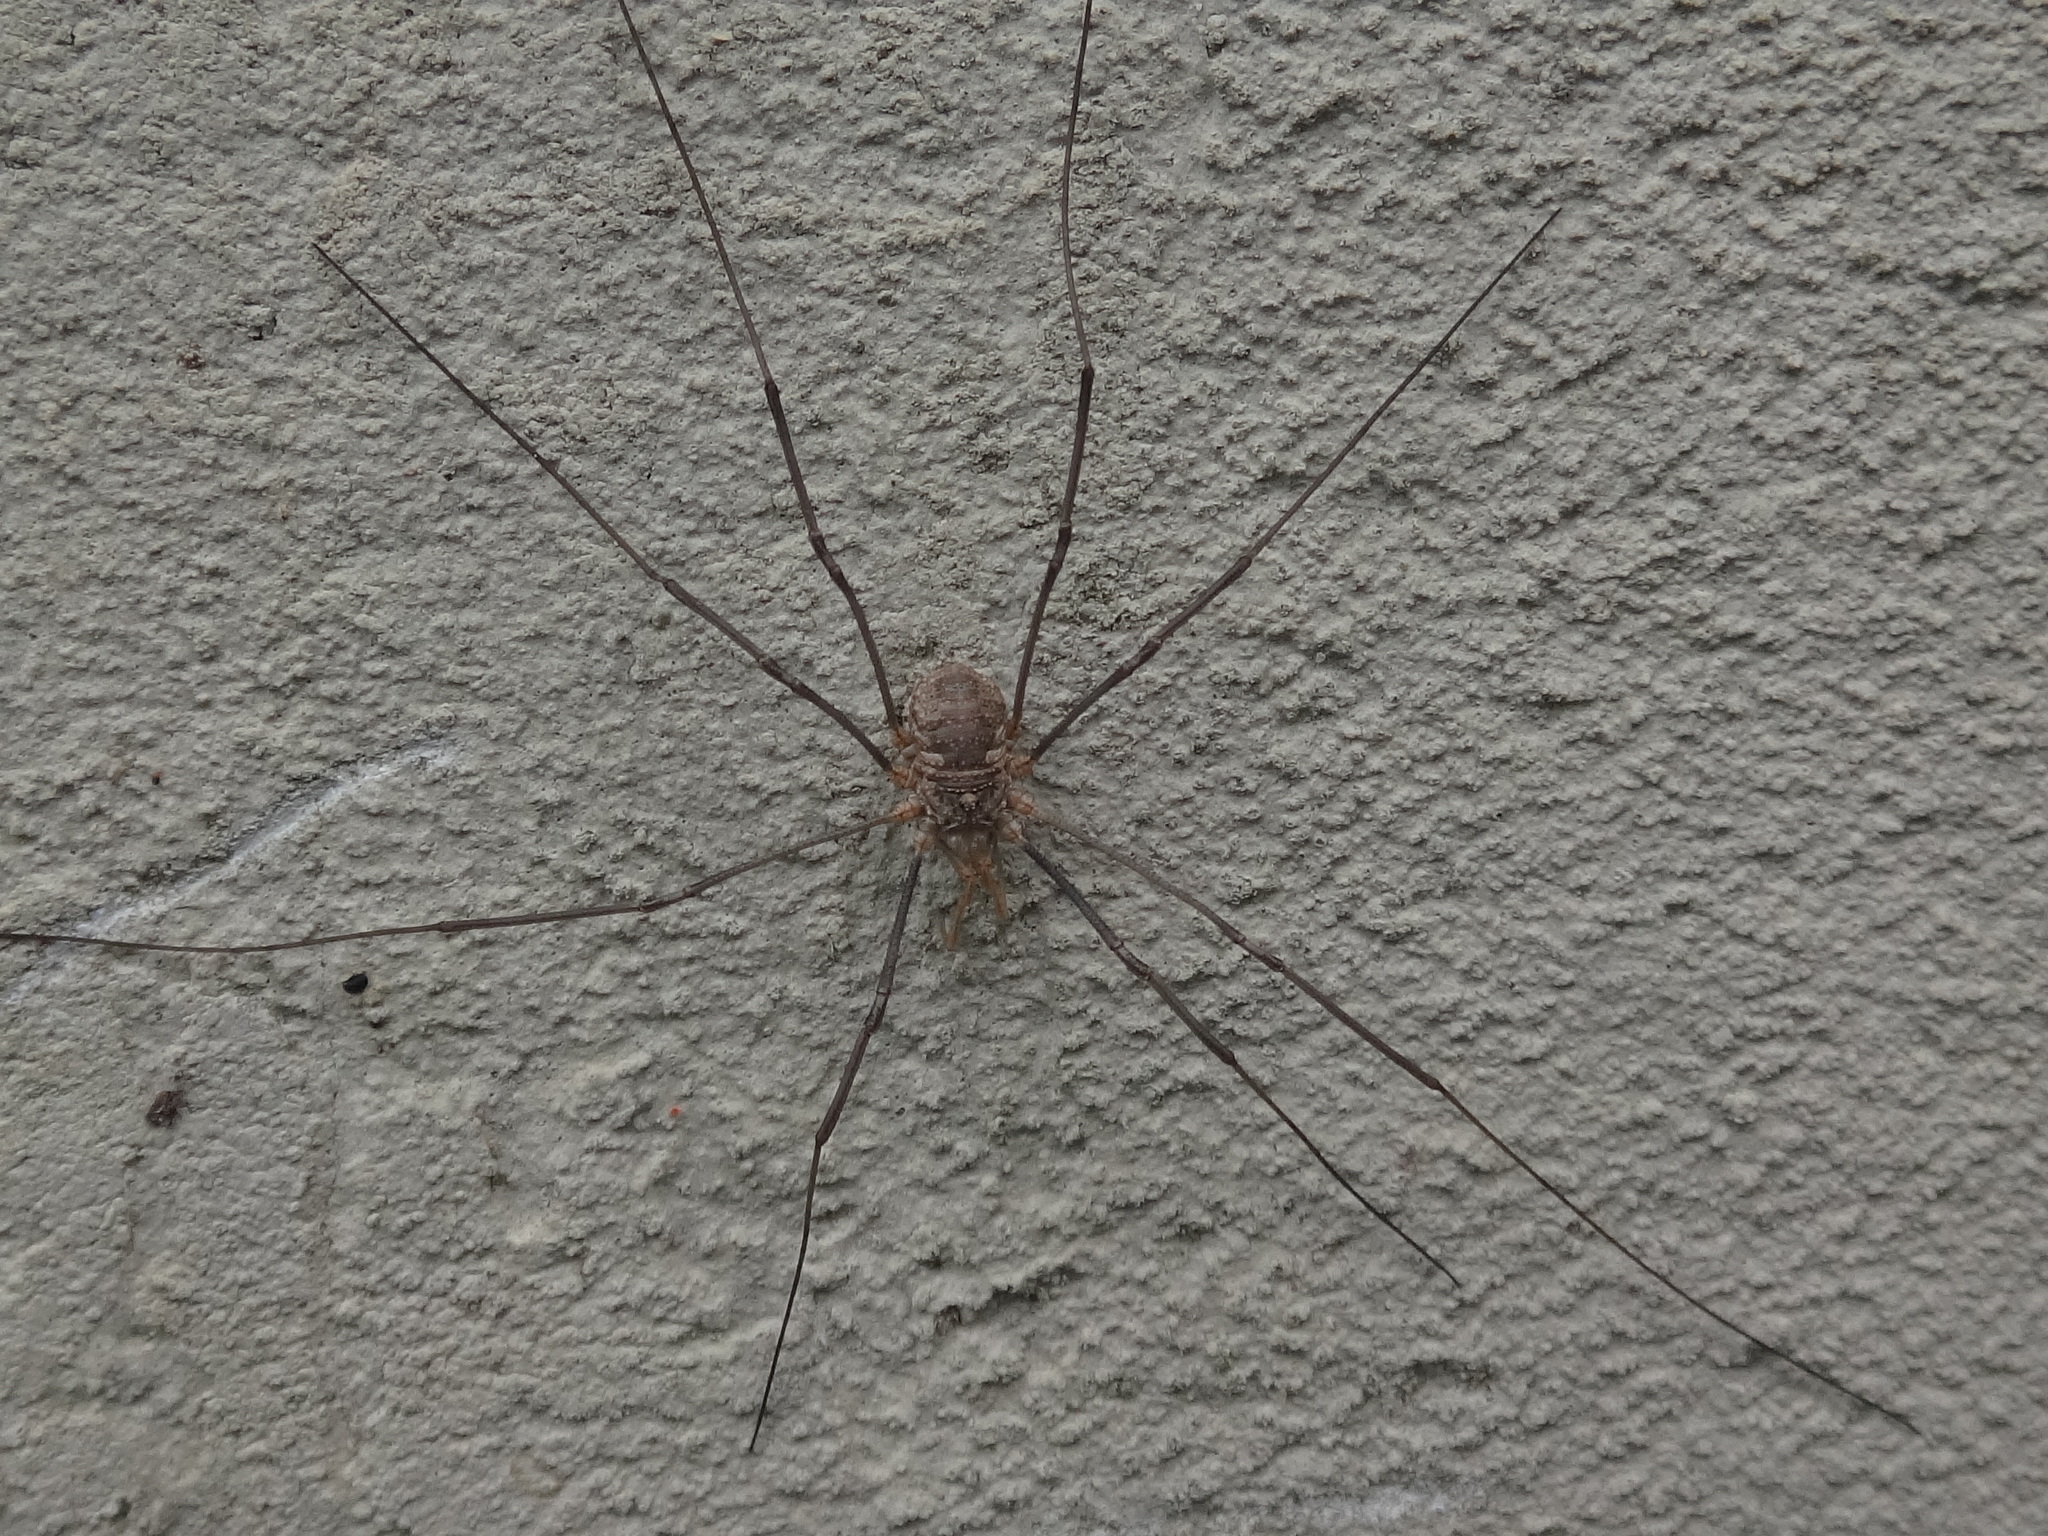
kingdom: Animalia
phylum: Arthropoda
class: Arachnida
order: Opiliones
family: Phalangiidae
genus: Phalangium
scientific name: Phalangium opilio
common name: Daddy longleg
